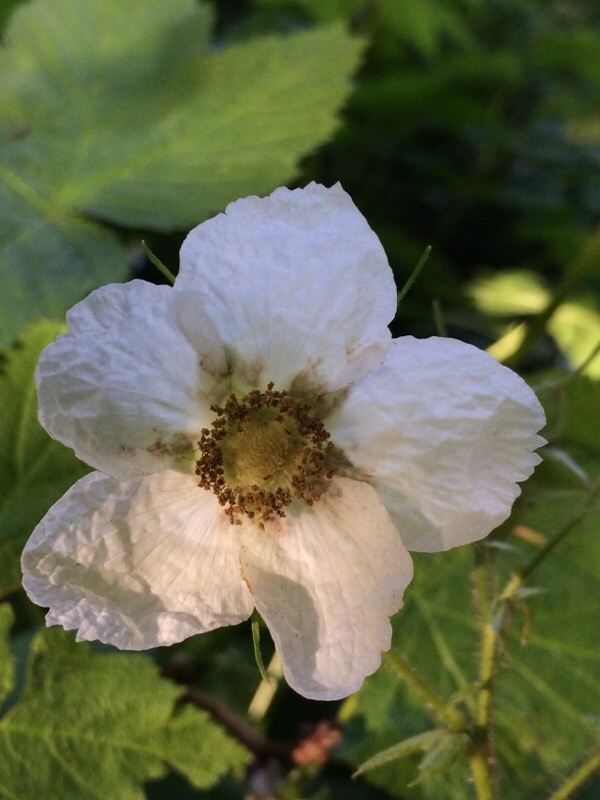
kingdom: Plantae
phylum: Tracheophyta
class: Magnoliopsida
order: Rosales
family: Rosaceae
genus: Rubus
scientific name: Rubus parviflorus
